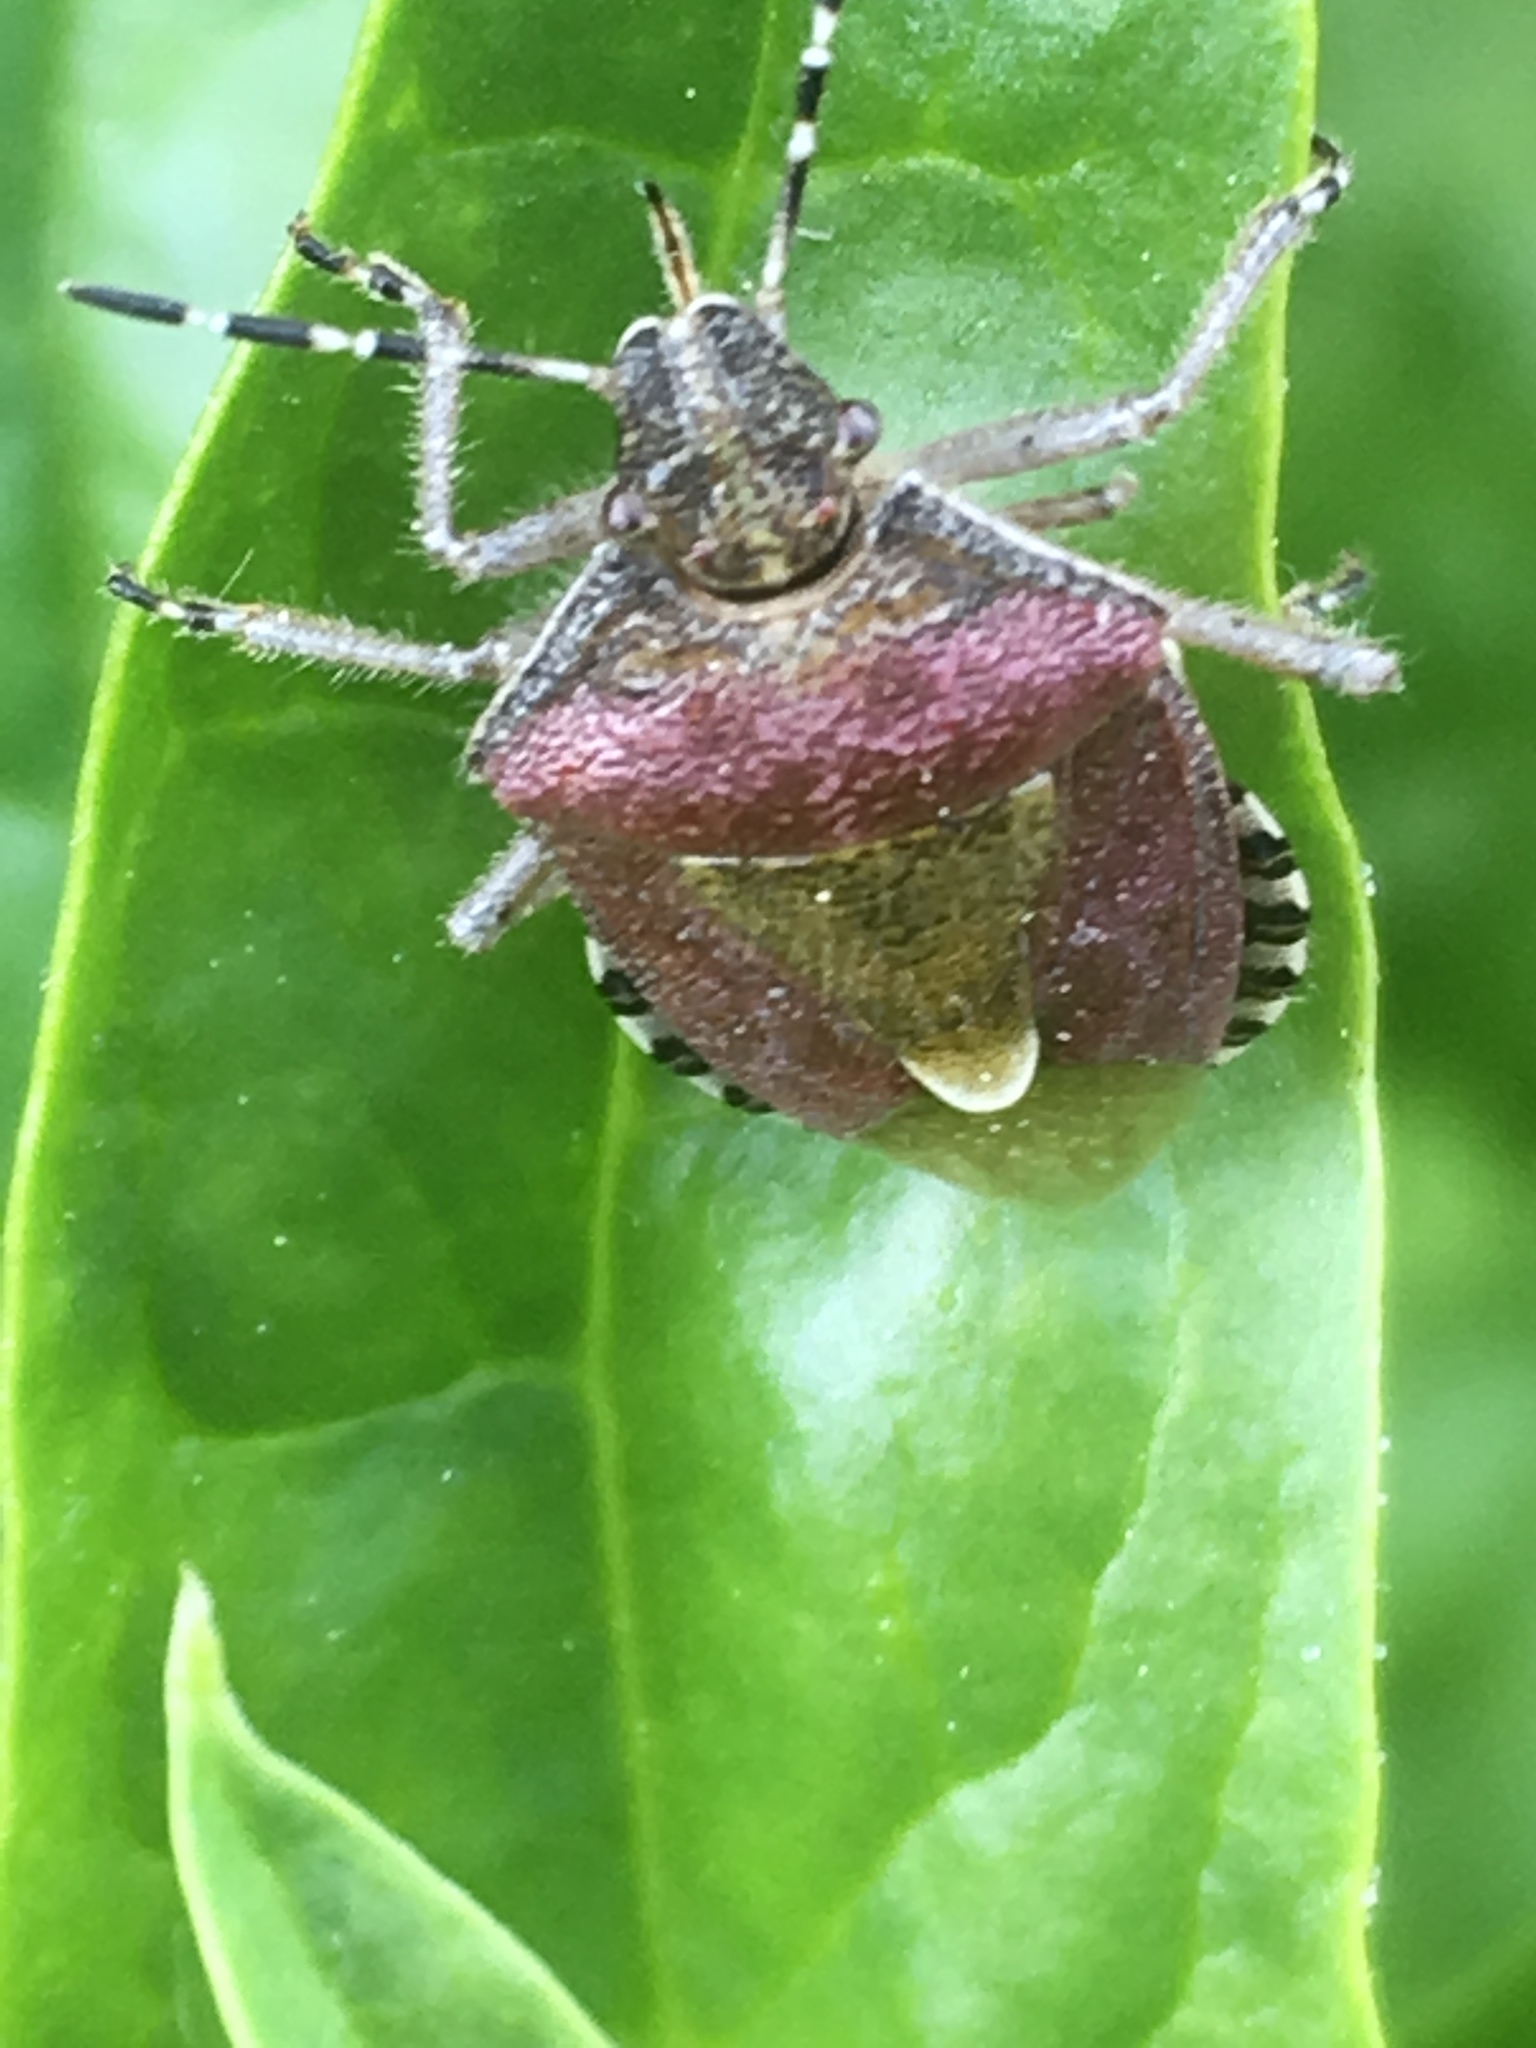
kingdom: Animalia
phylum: Arthropoda
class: Insecta
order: Hemiptera
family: Pentatomidae
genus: Dolycoris
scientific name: Dolycoris baccarum
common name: Sloe bug
